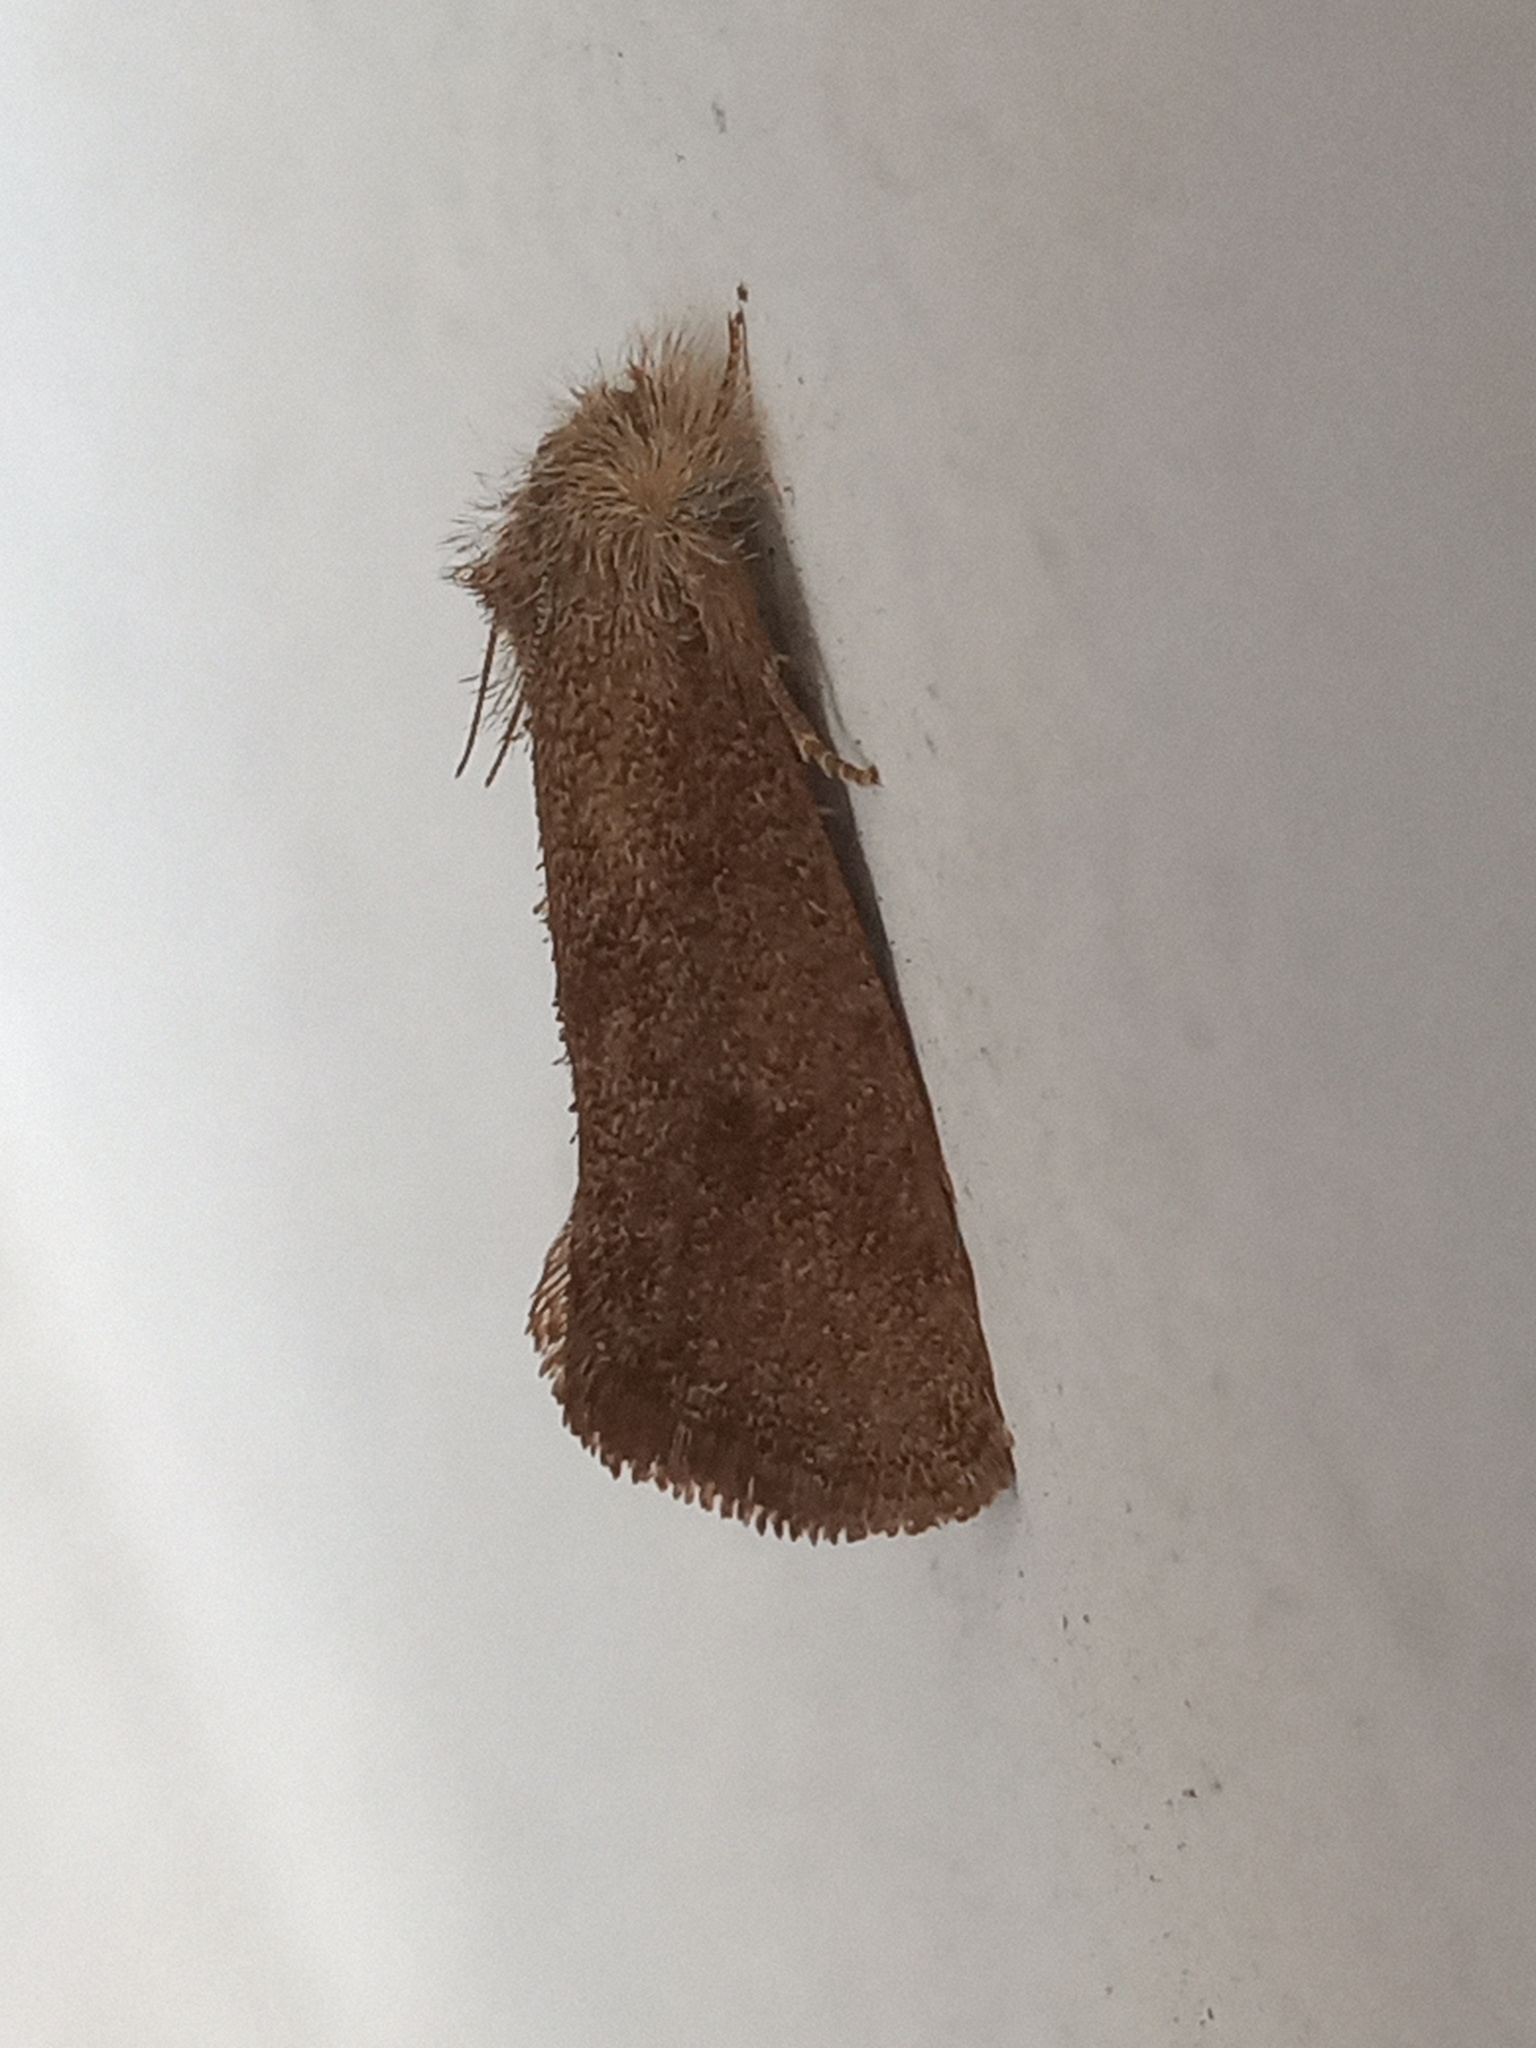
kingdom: Animalia
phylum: Arthropoda
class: Insecta
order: Lepidoptera
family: Tineidae
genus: Acrolophus
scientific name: Acrolophus heppneri
